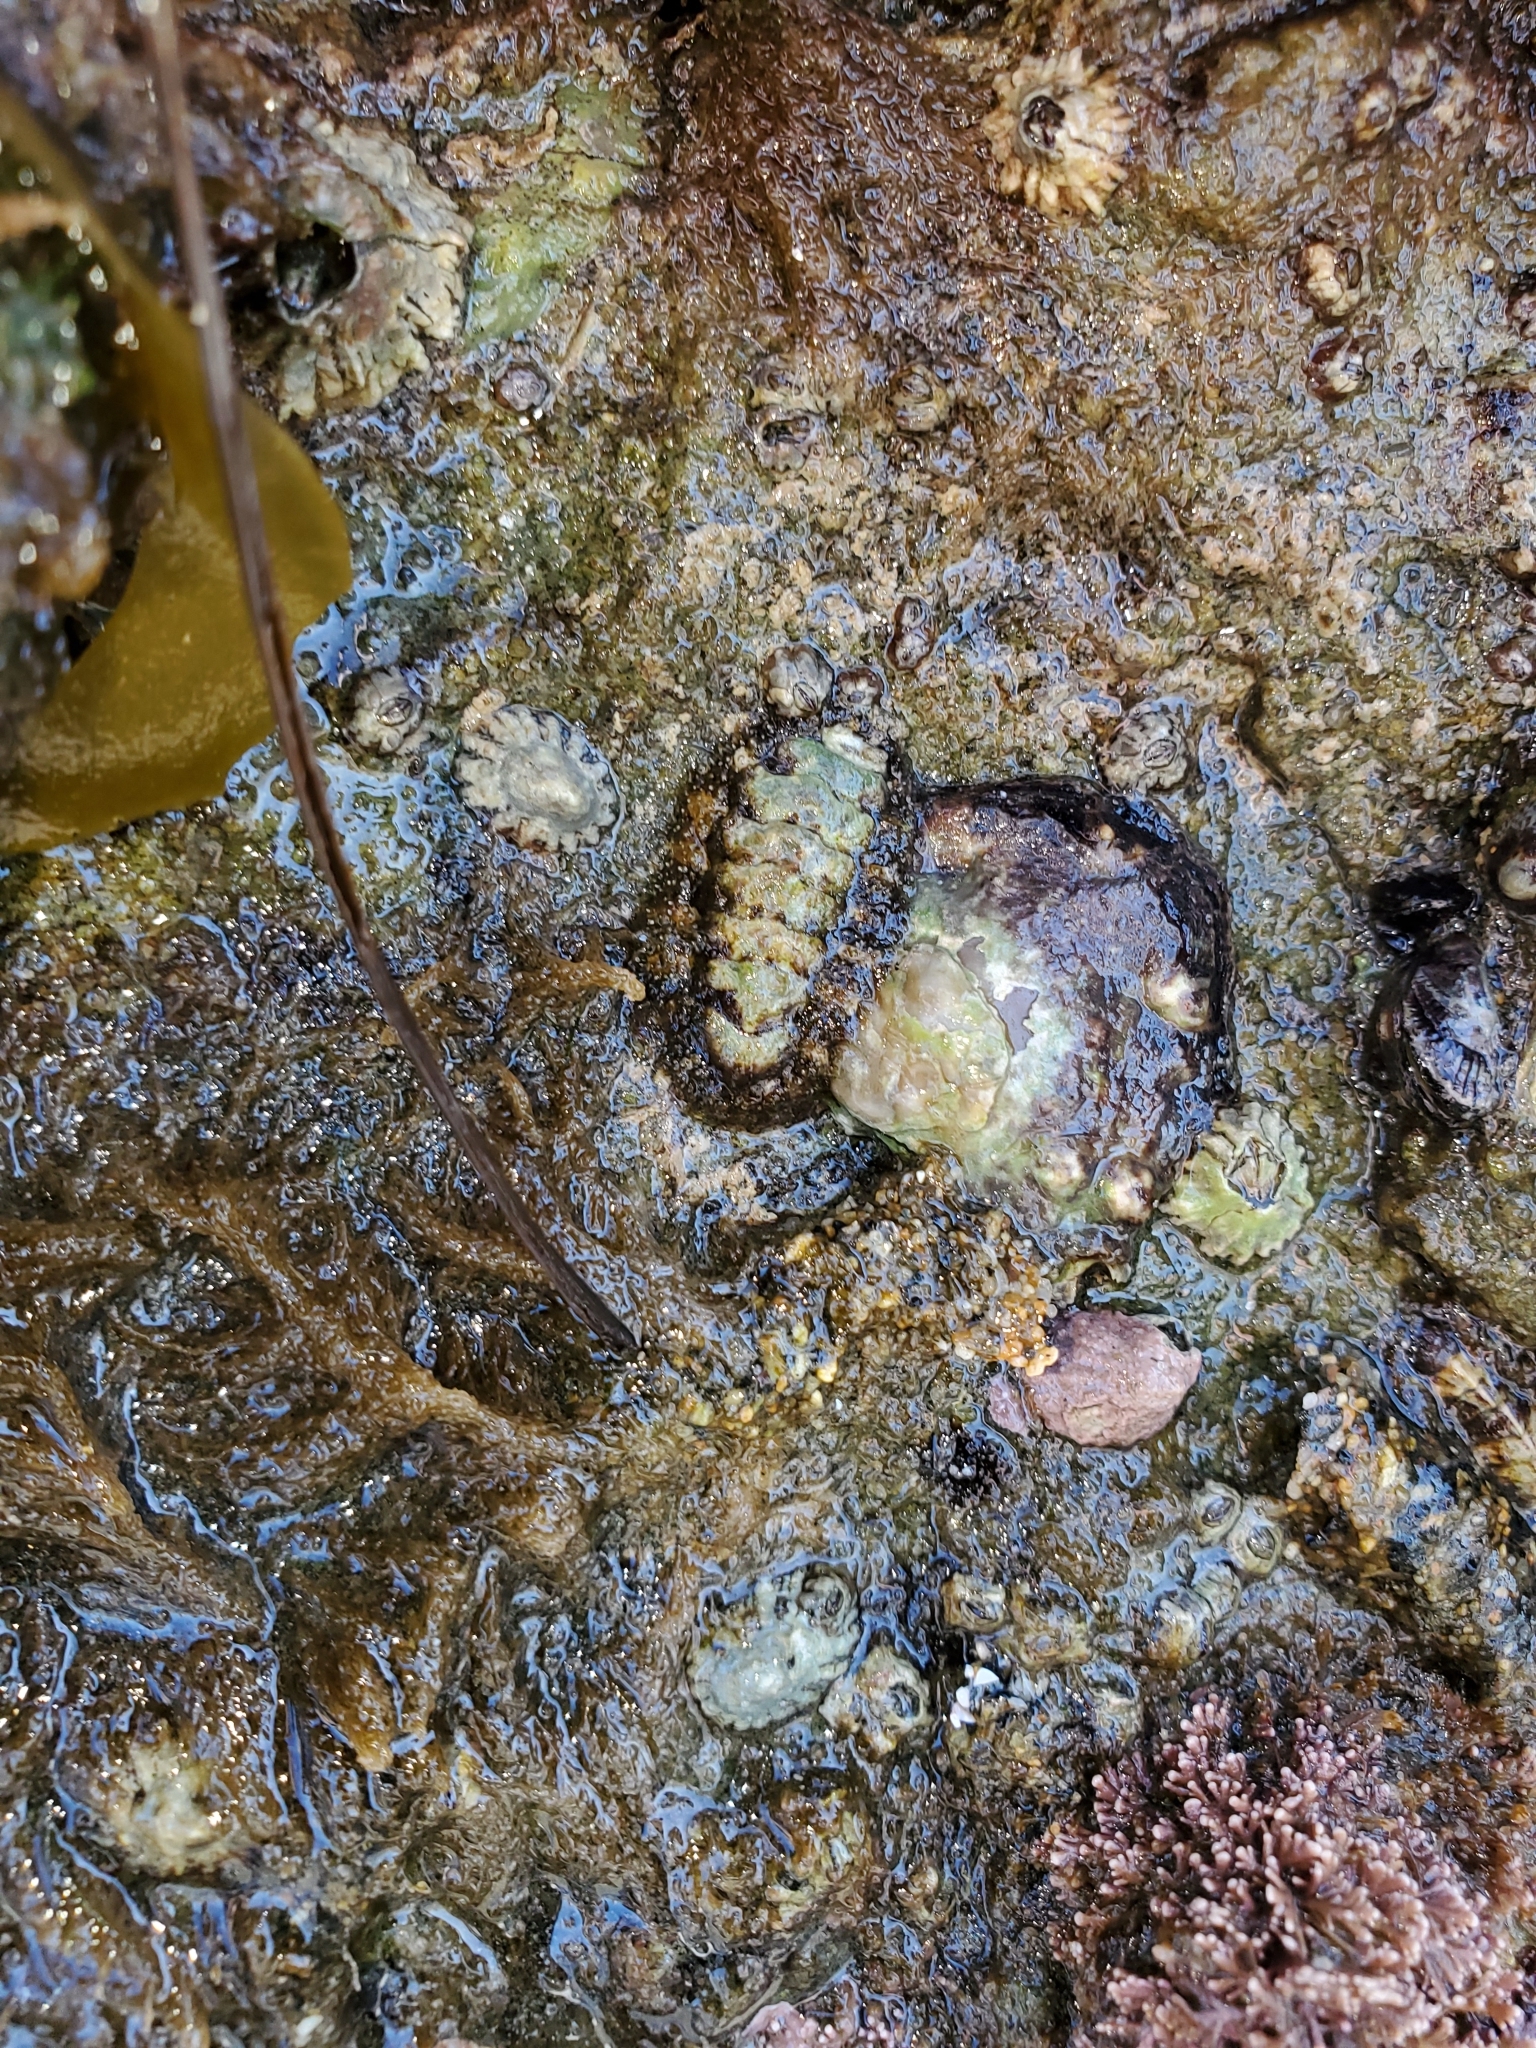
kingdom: Animalia
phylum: Mollusca
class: Polyplacophora
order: Chitonida
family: Tonicellidae
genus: Nuttallina
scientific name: Nuttallina californica
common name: California nuttall chiton
